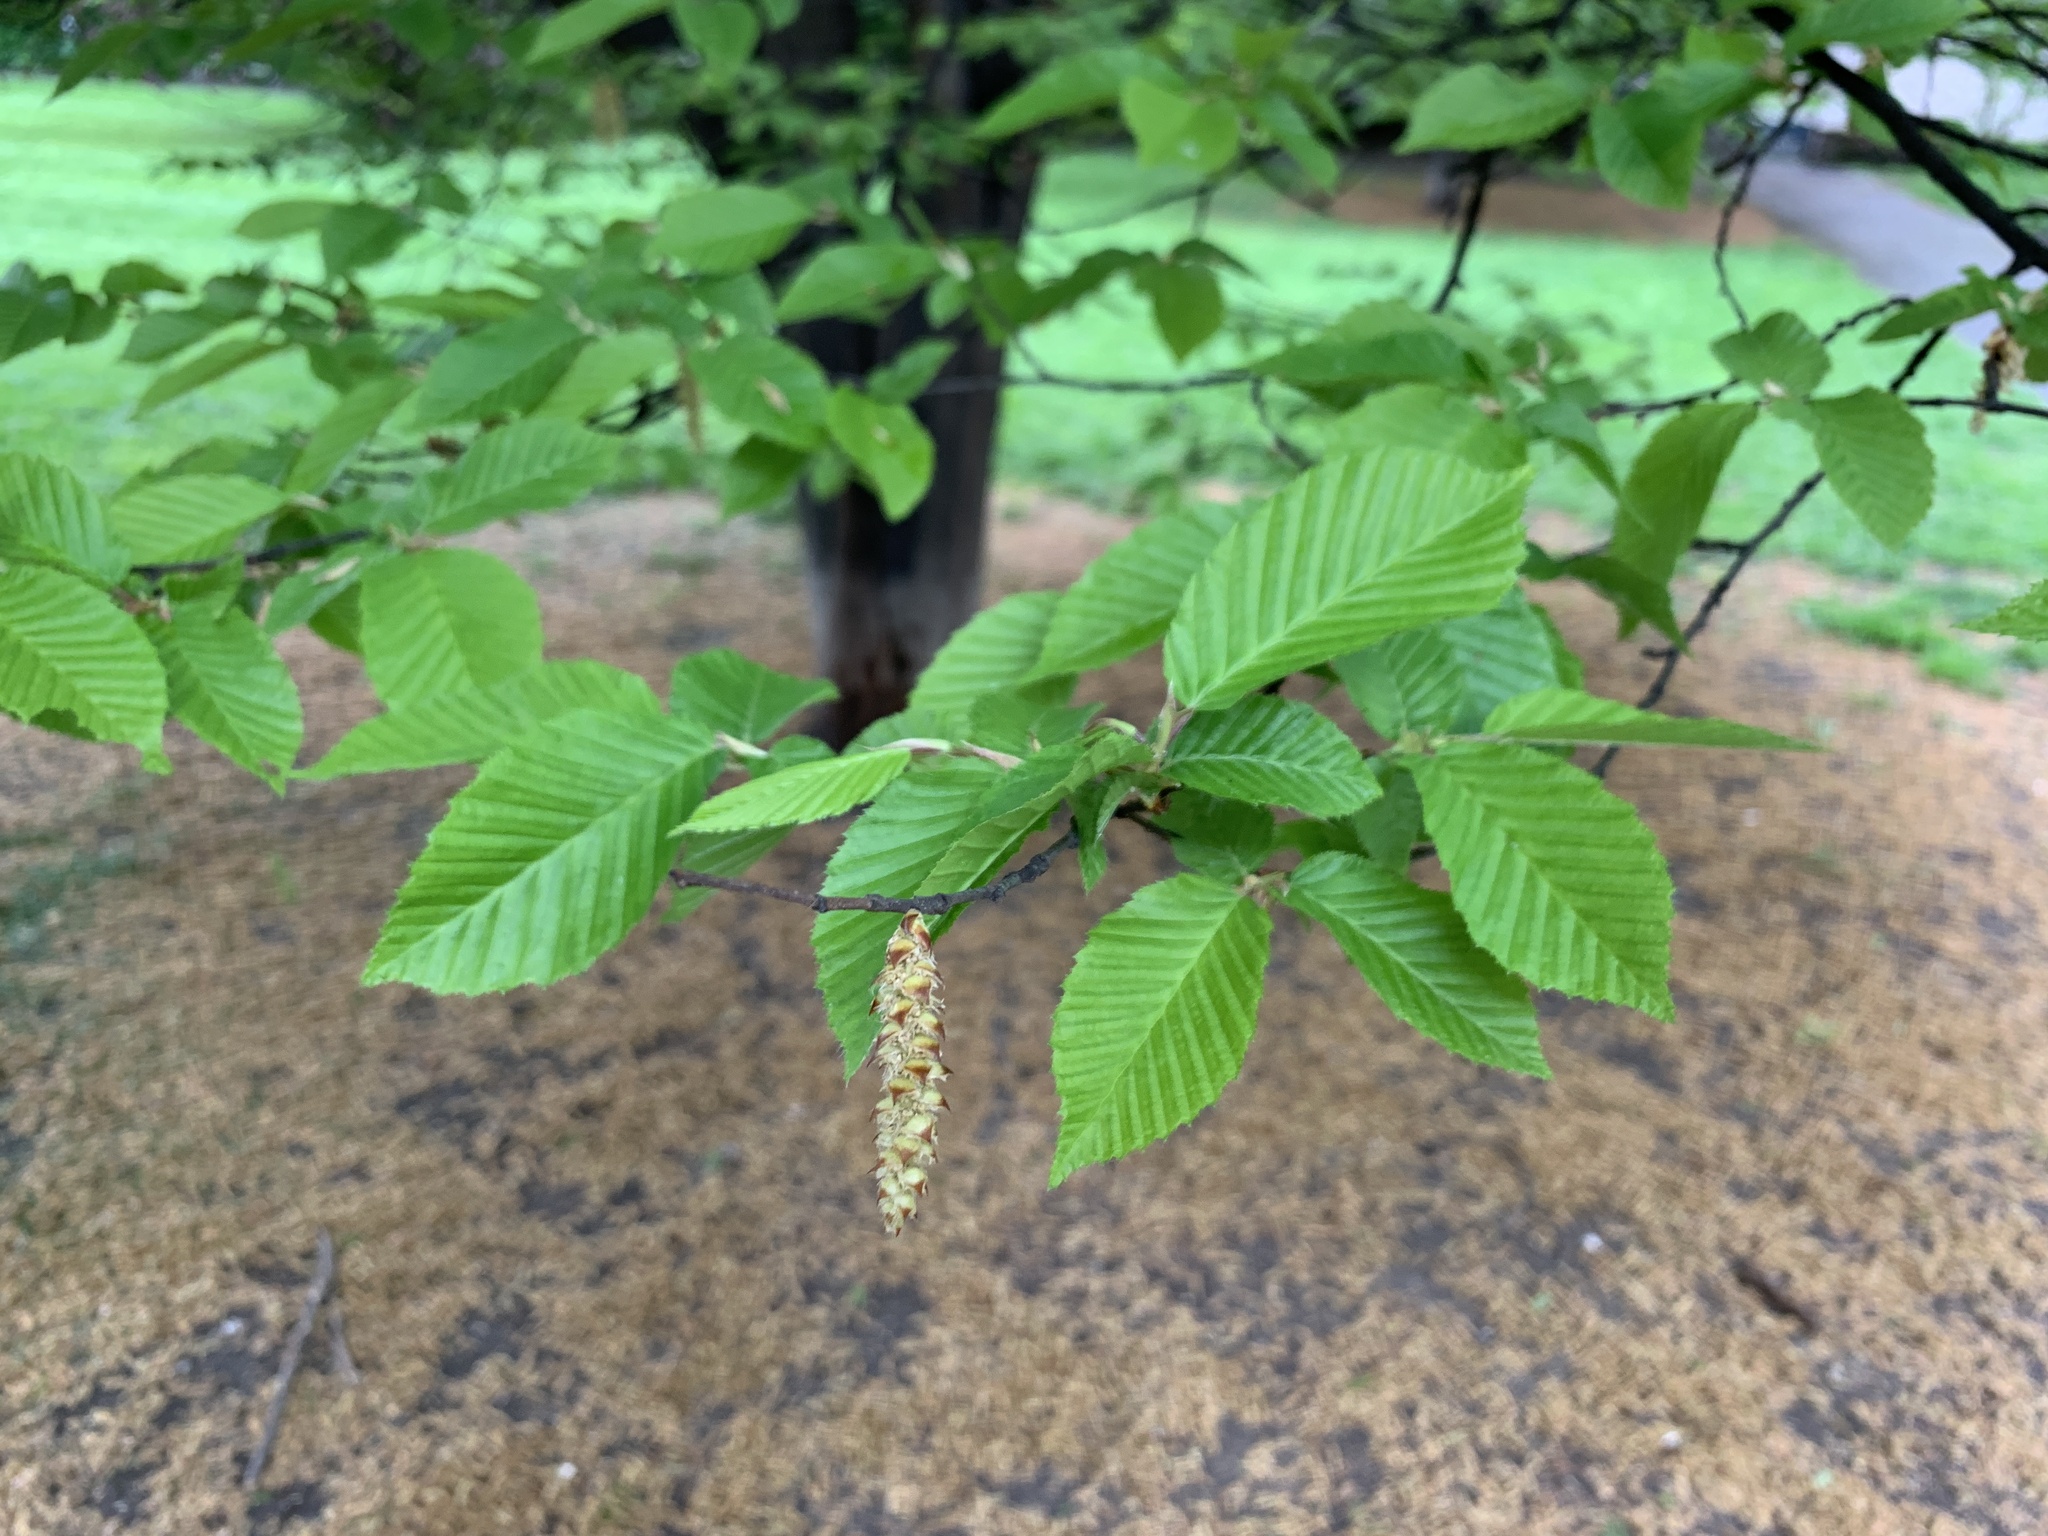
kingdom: Plantae
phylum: Tracheophyta
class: Magnoliopsida
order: Fagales
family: Betulaceae
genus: Carpinus
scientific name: Carpinus betulus
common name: Hornbeam
